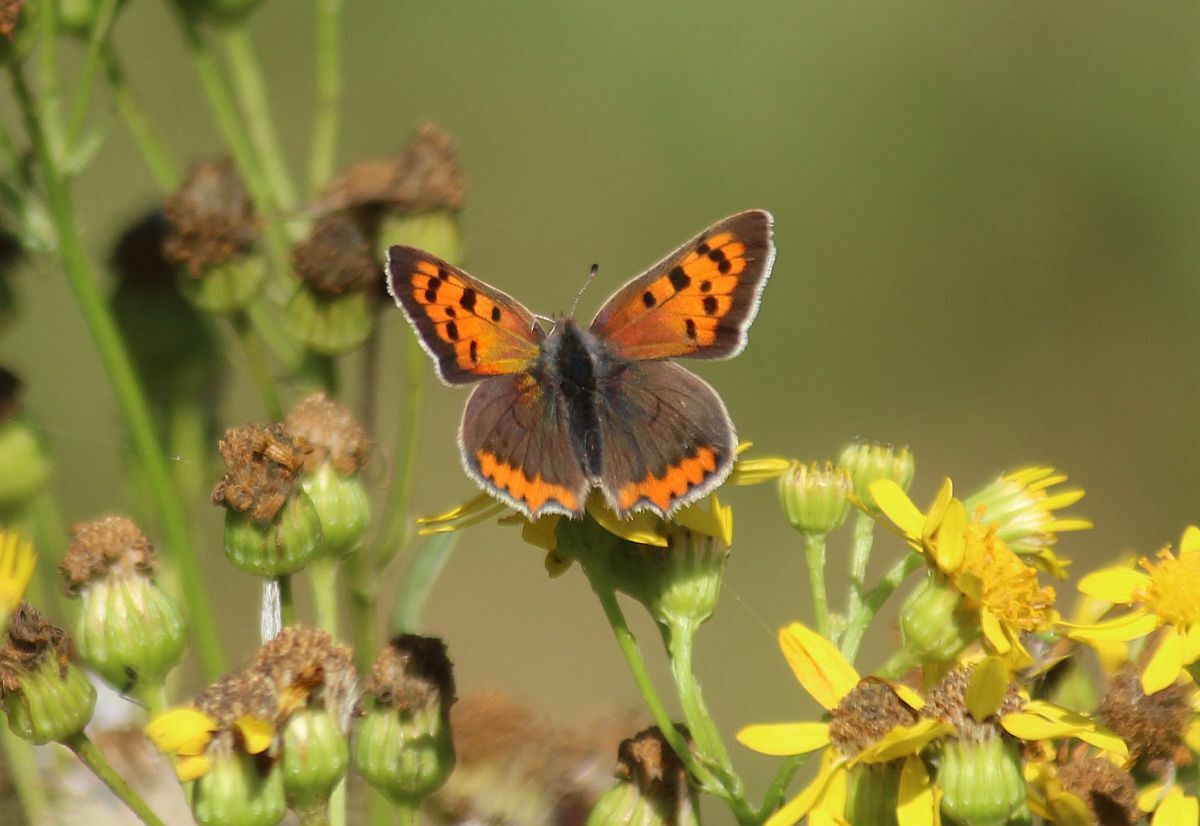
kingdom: Animalia
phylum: Arthropoda
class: Insecta
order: Lepidoptera
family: Lycaenidae
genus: Lycaena
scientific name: Lycaena phlaeas
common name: Small copper
